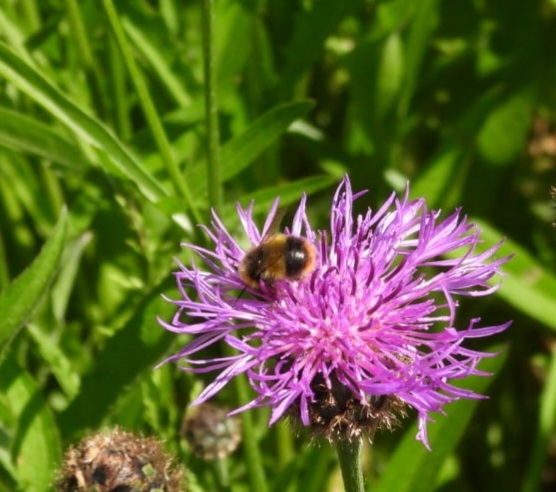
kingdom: Animalia
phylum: Arthropoda
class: Insecta
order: Hymenoptera
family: Apidae
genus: Bombus
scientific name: Bombus pratorum
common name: Early humble-bee
